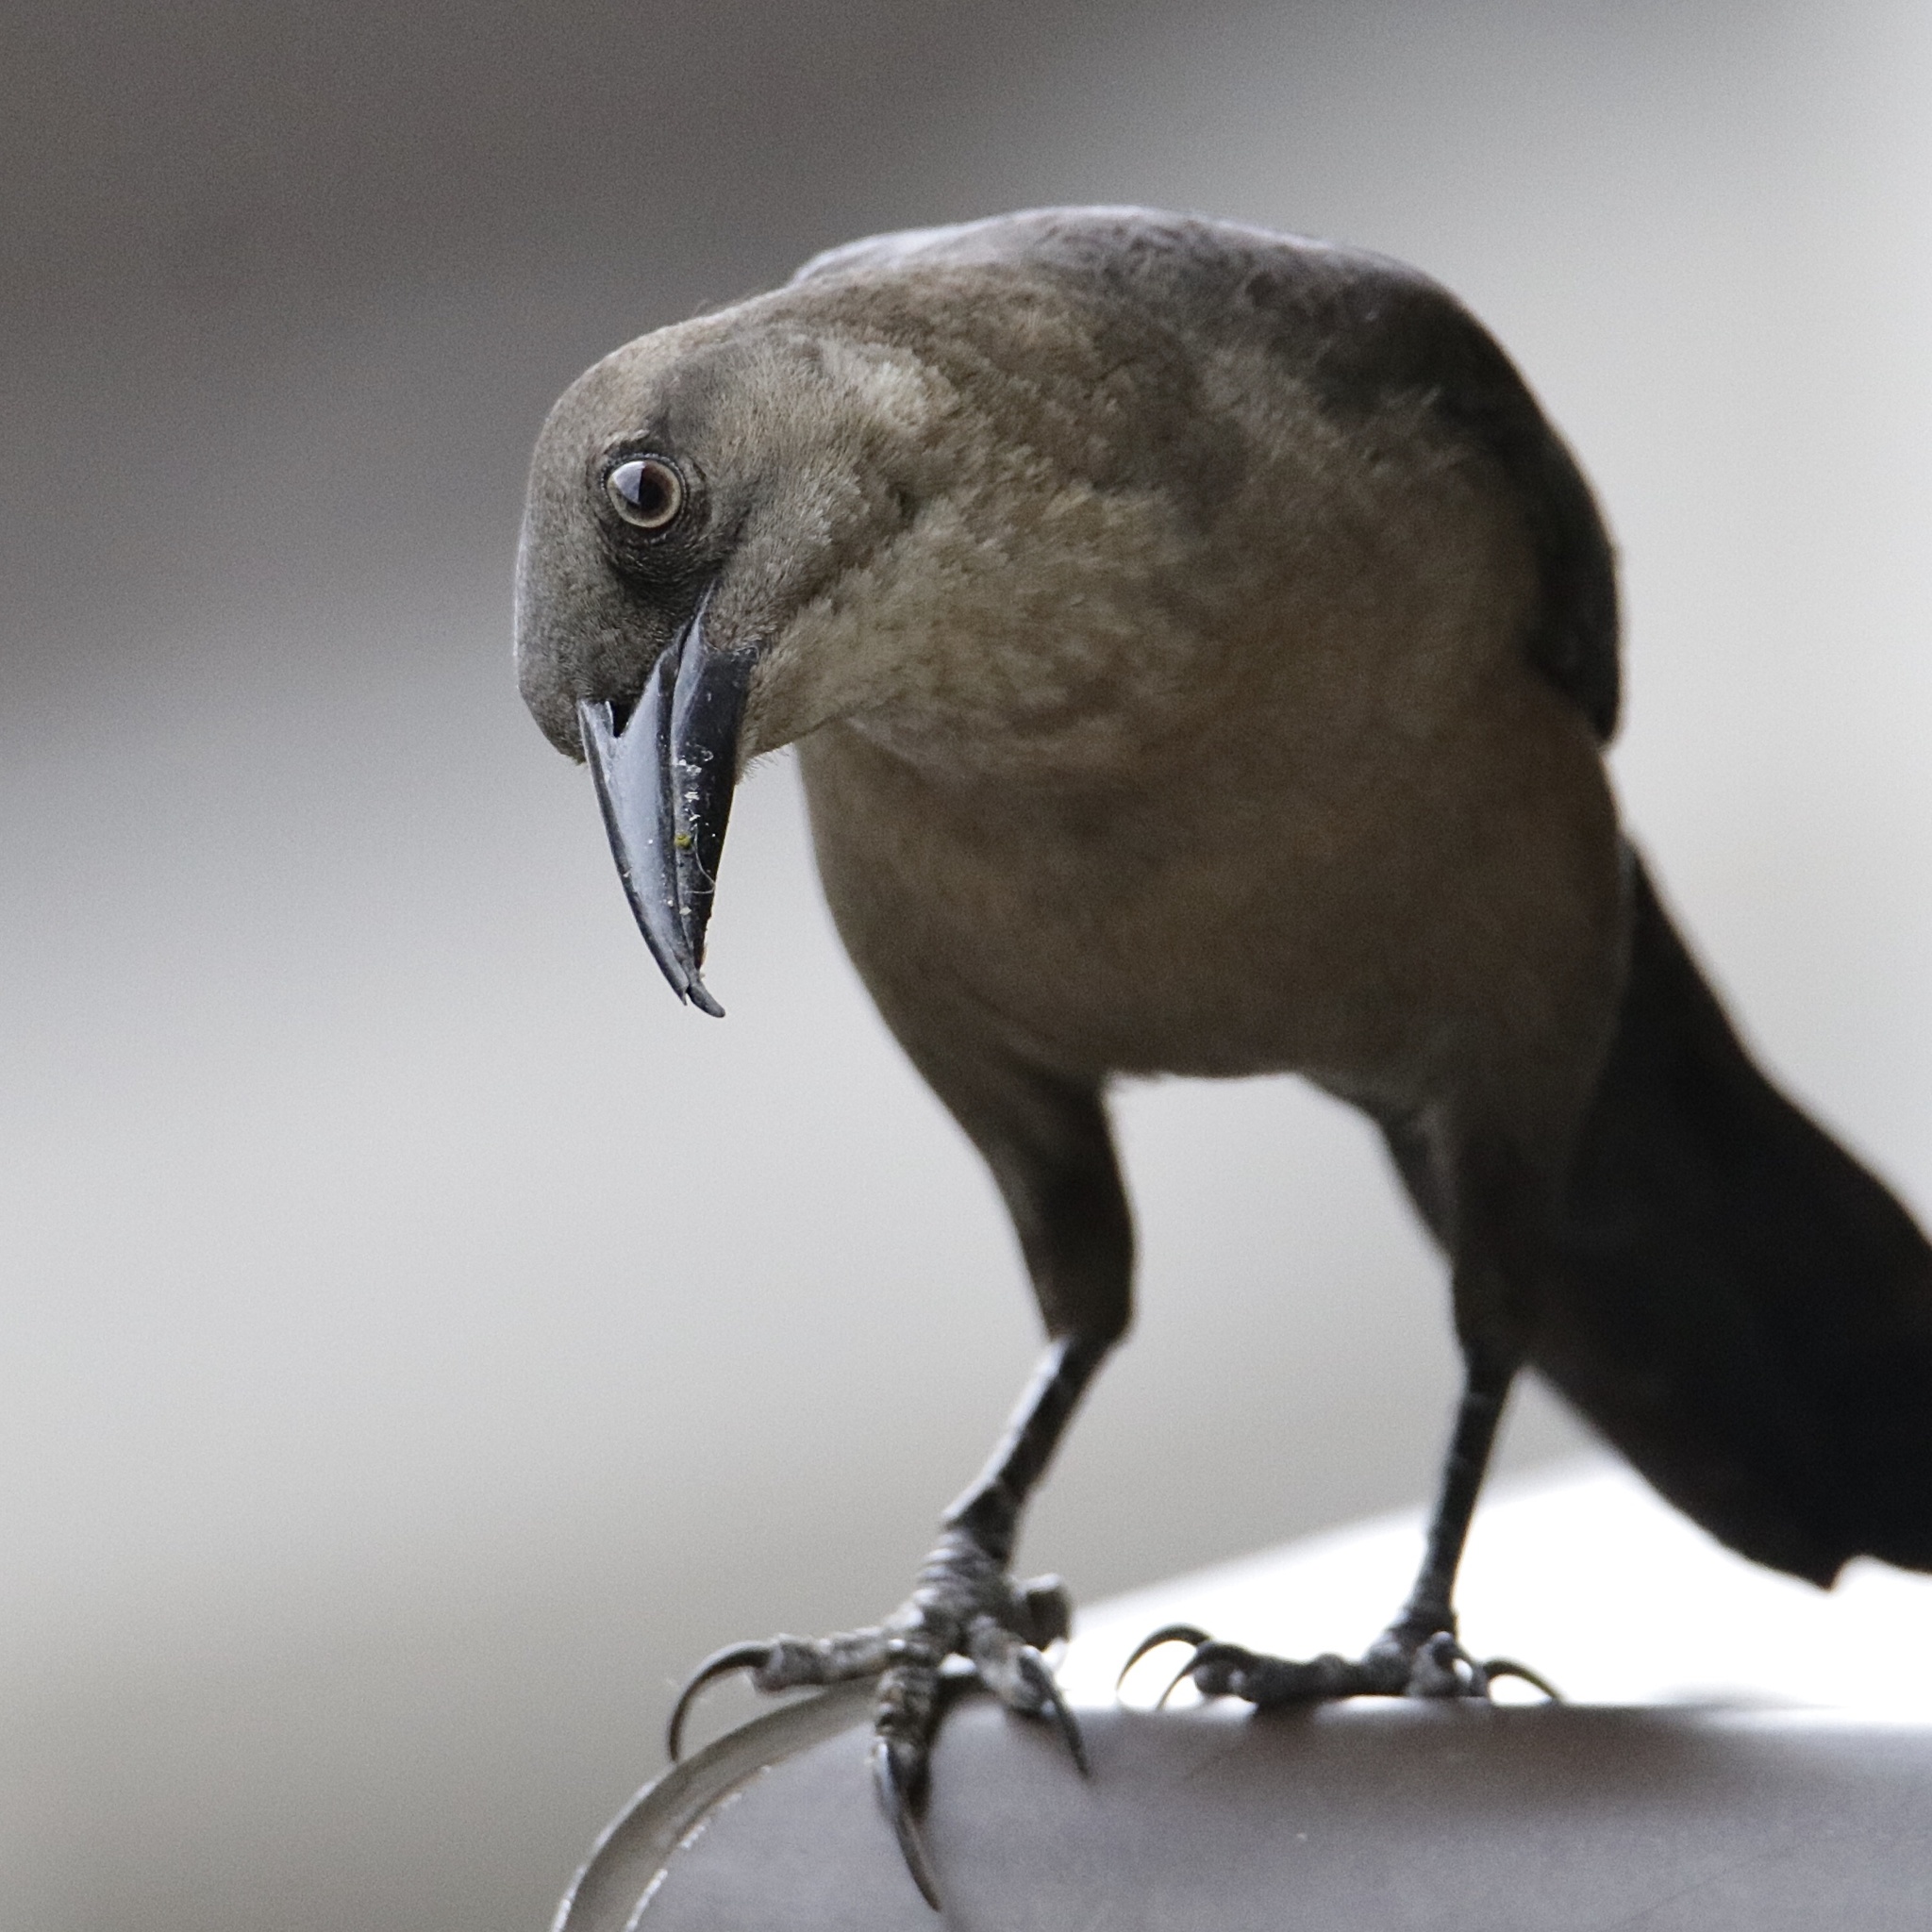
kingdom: Animalia
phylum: Chordata
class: Aves
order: Passeriformes
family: Icteridae
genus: Quiscalus
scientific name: Quiscalus mexicanus
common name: Great-tailed grackle
